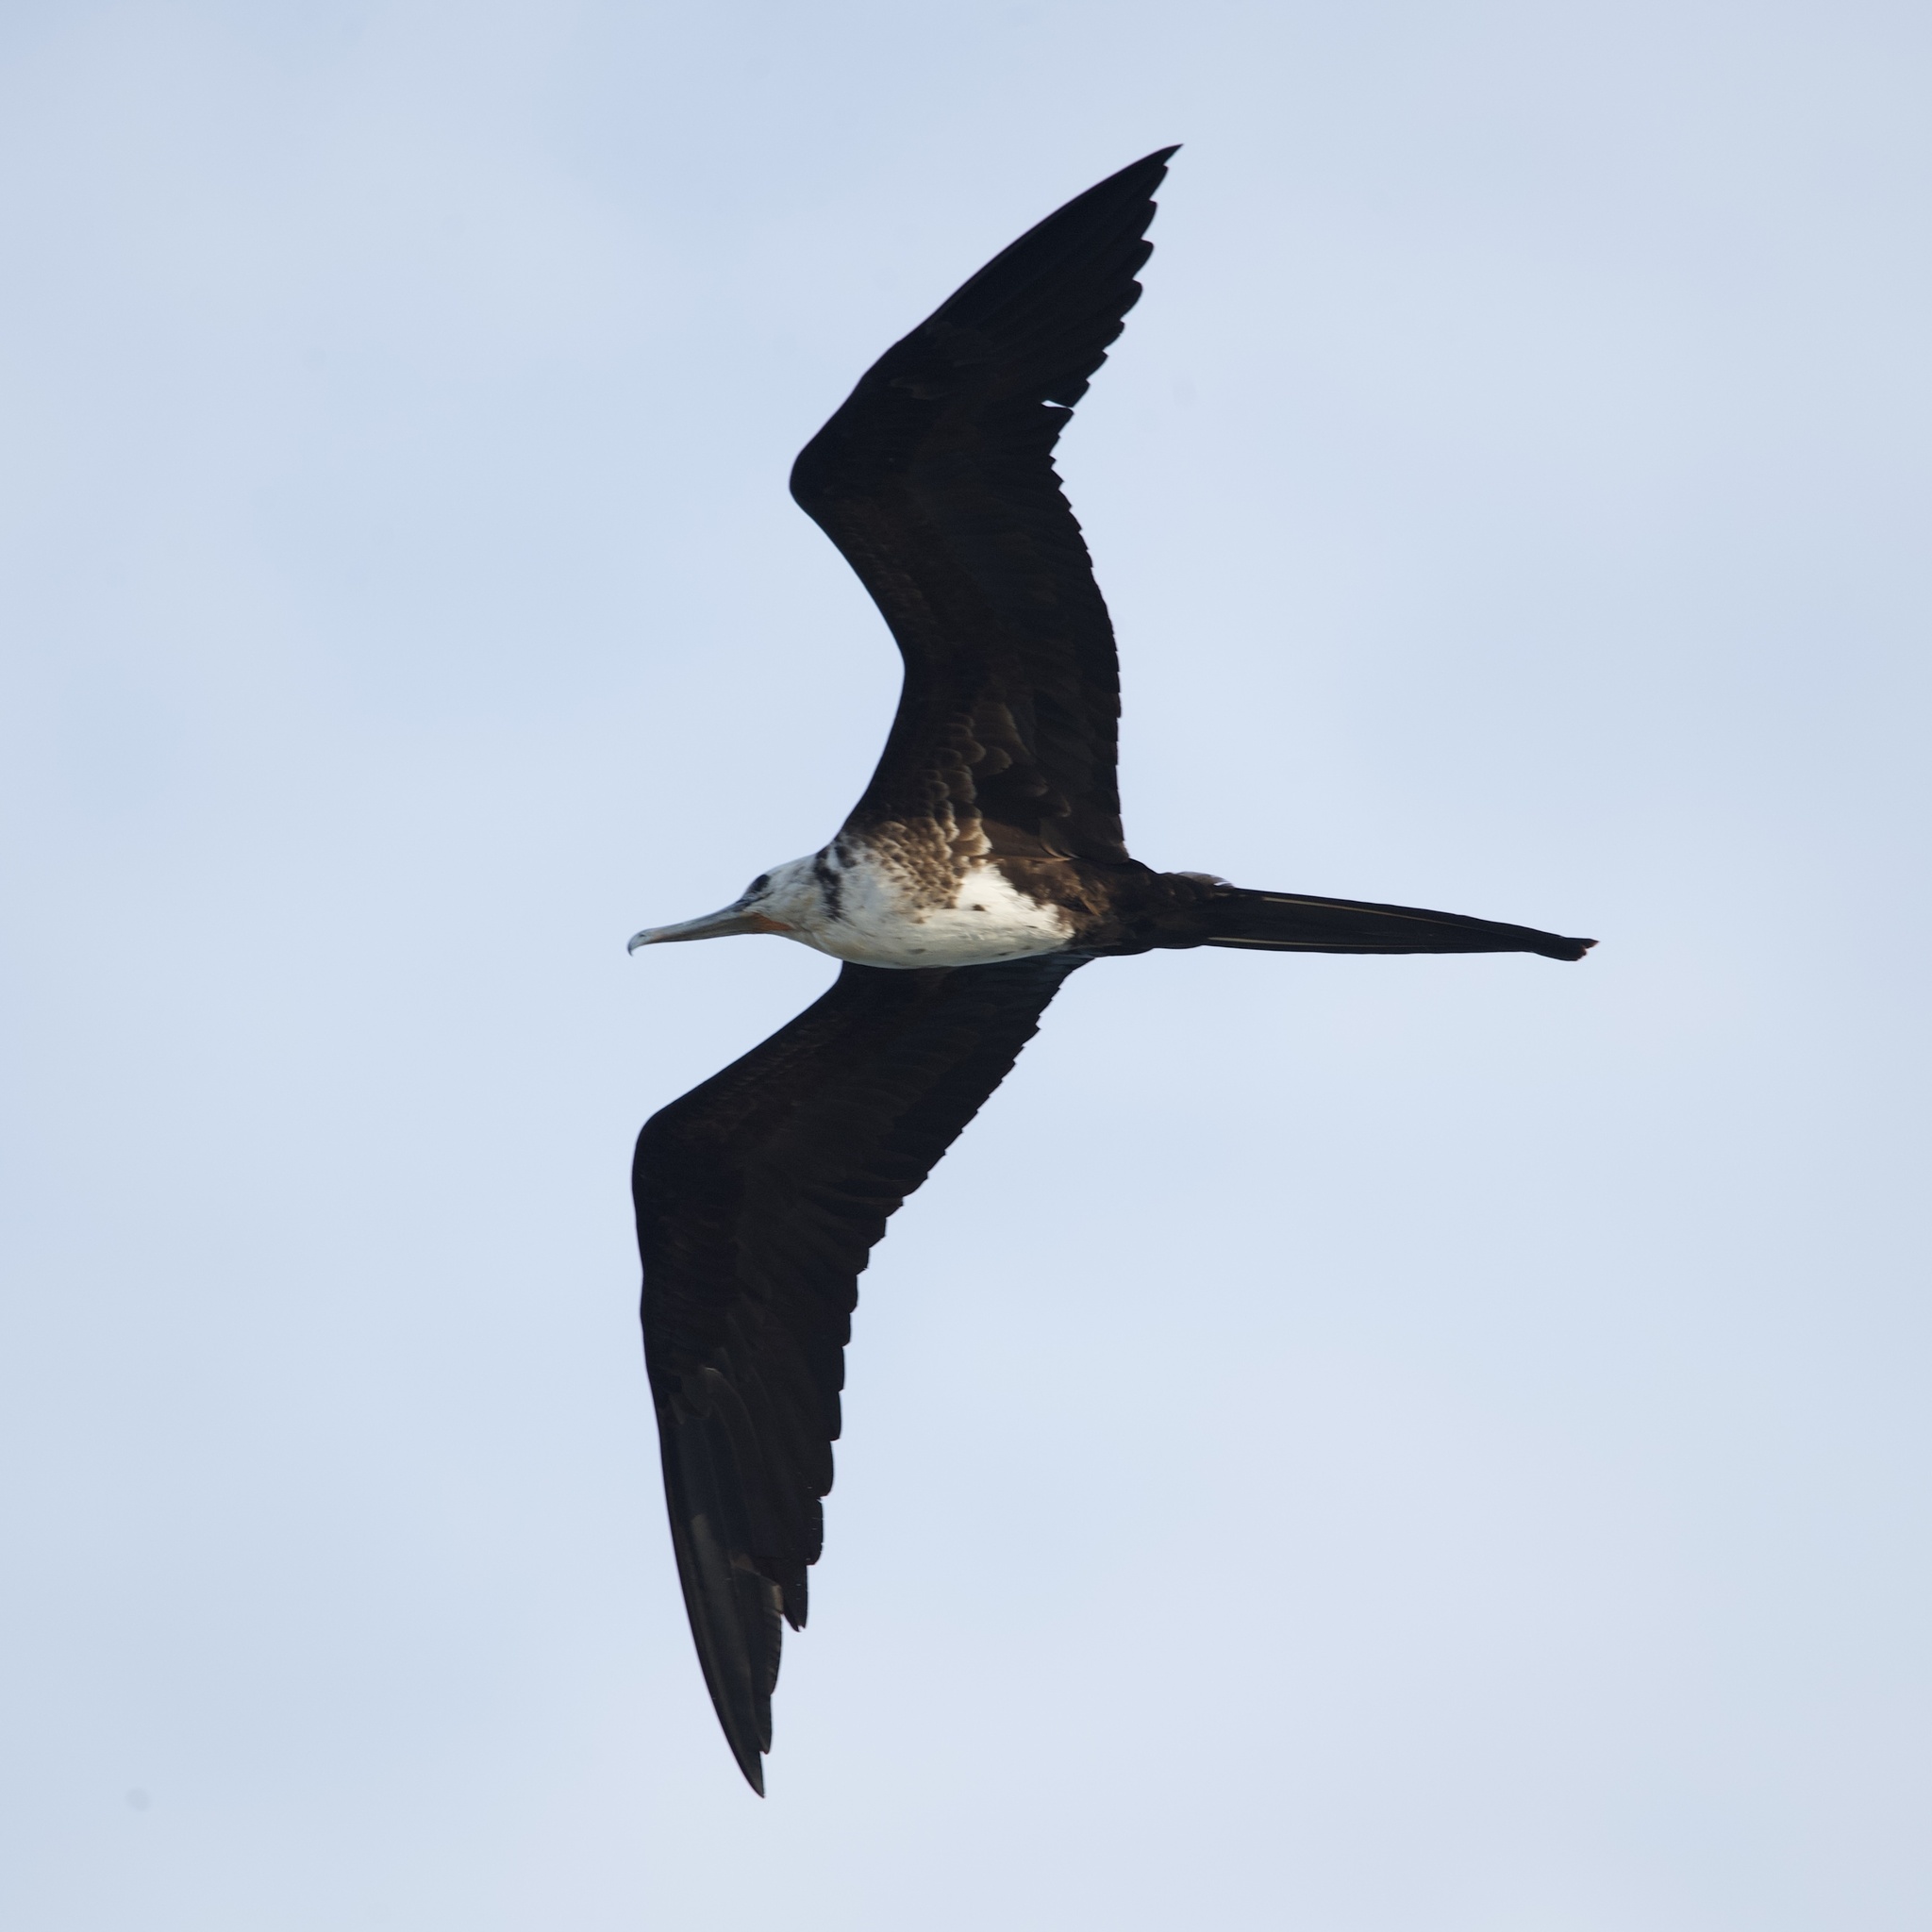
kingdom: Animalia
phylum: Chordata
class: Aves
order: Suliformes
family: Fregatidae
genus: Fregata
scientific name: Fregata magnificens
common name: Magnificent frigatebird
